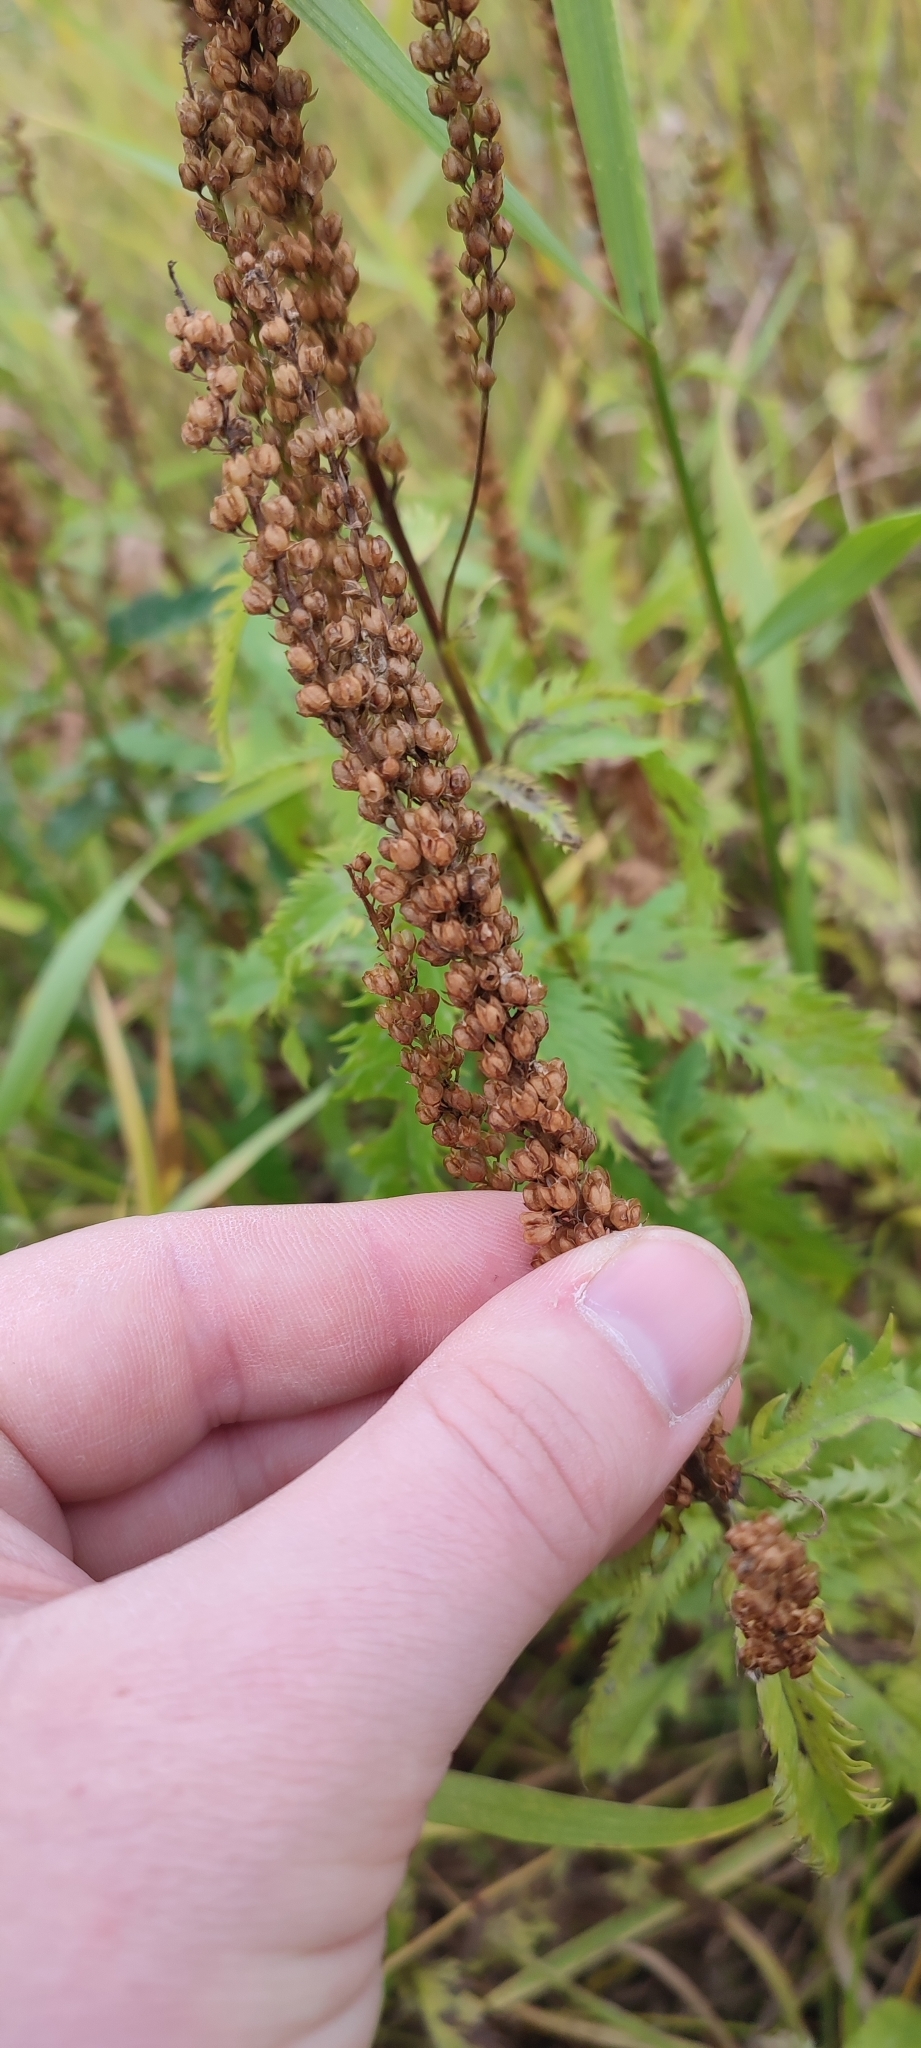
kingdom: Plantae
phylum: Tracheophyta
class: Magnoliopsida
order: Lamiales
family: Plantaginaceae
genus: Veronica
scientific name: Veronica longifolia
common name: Garden speedwell
